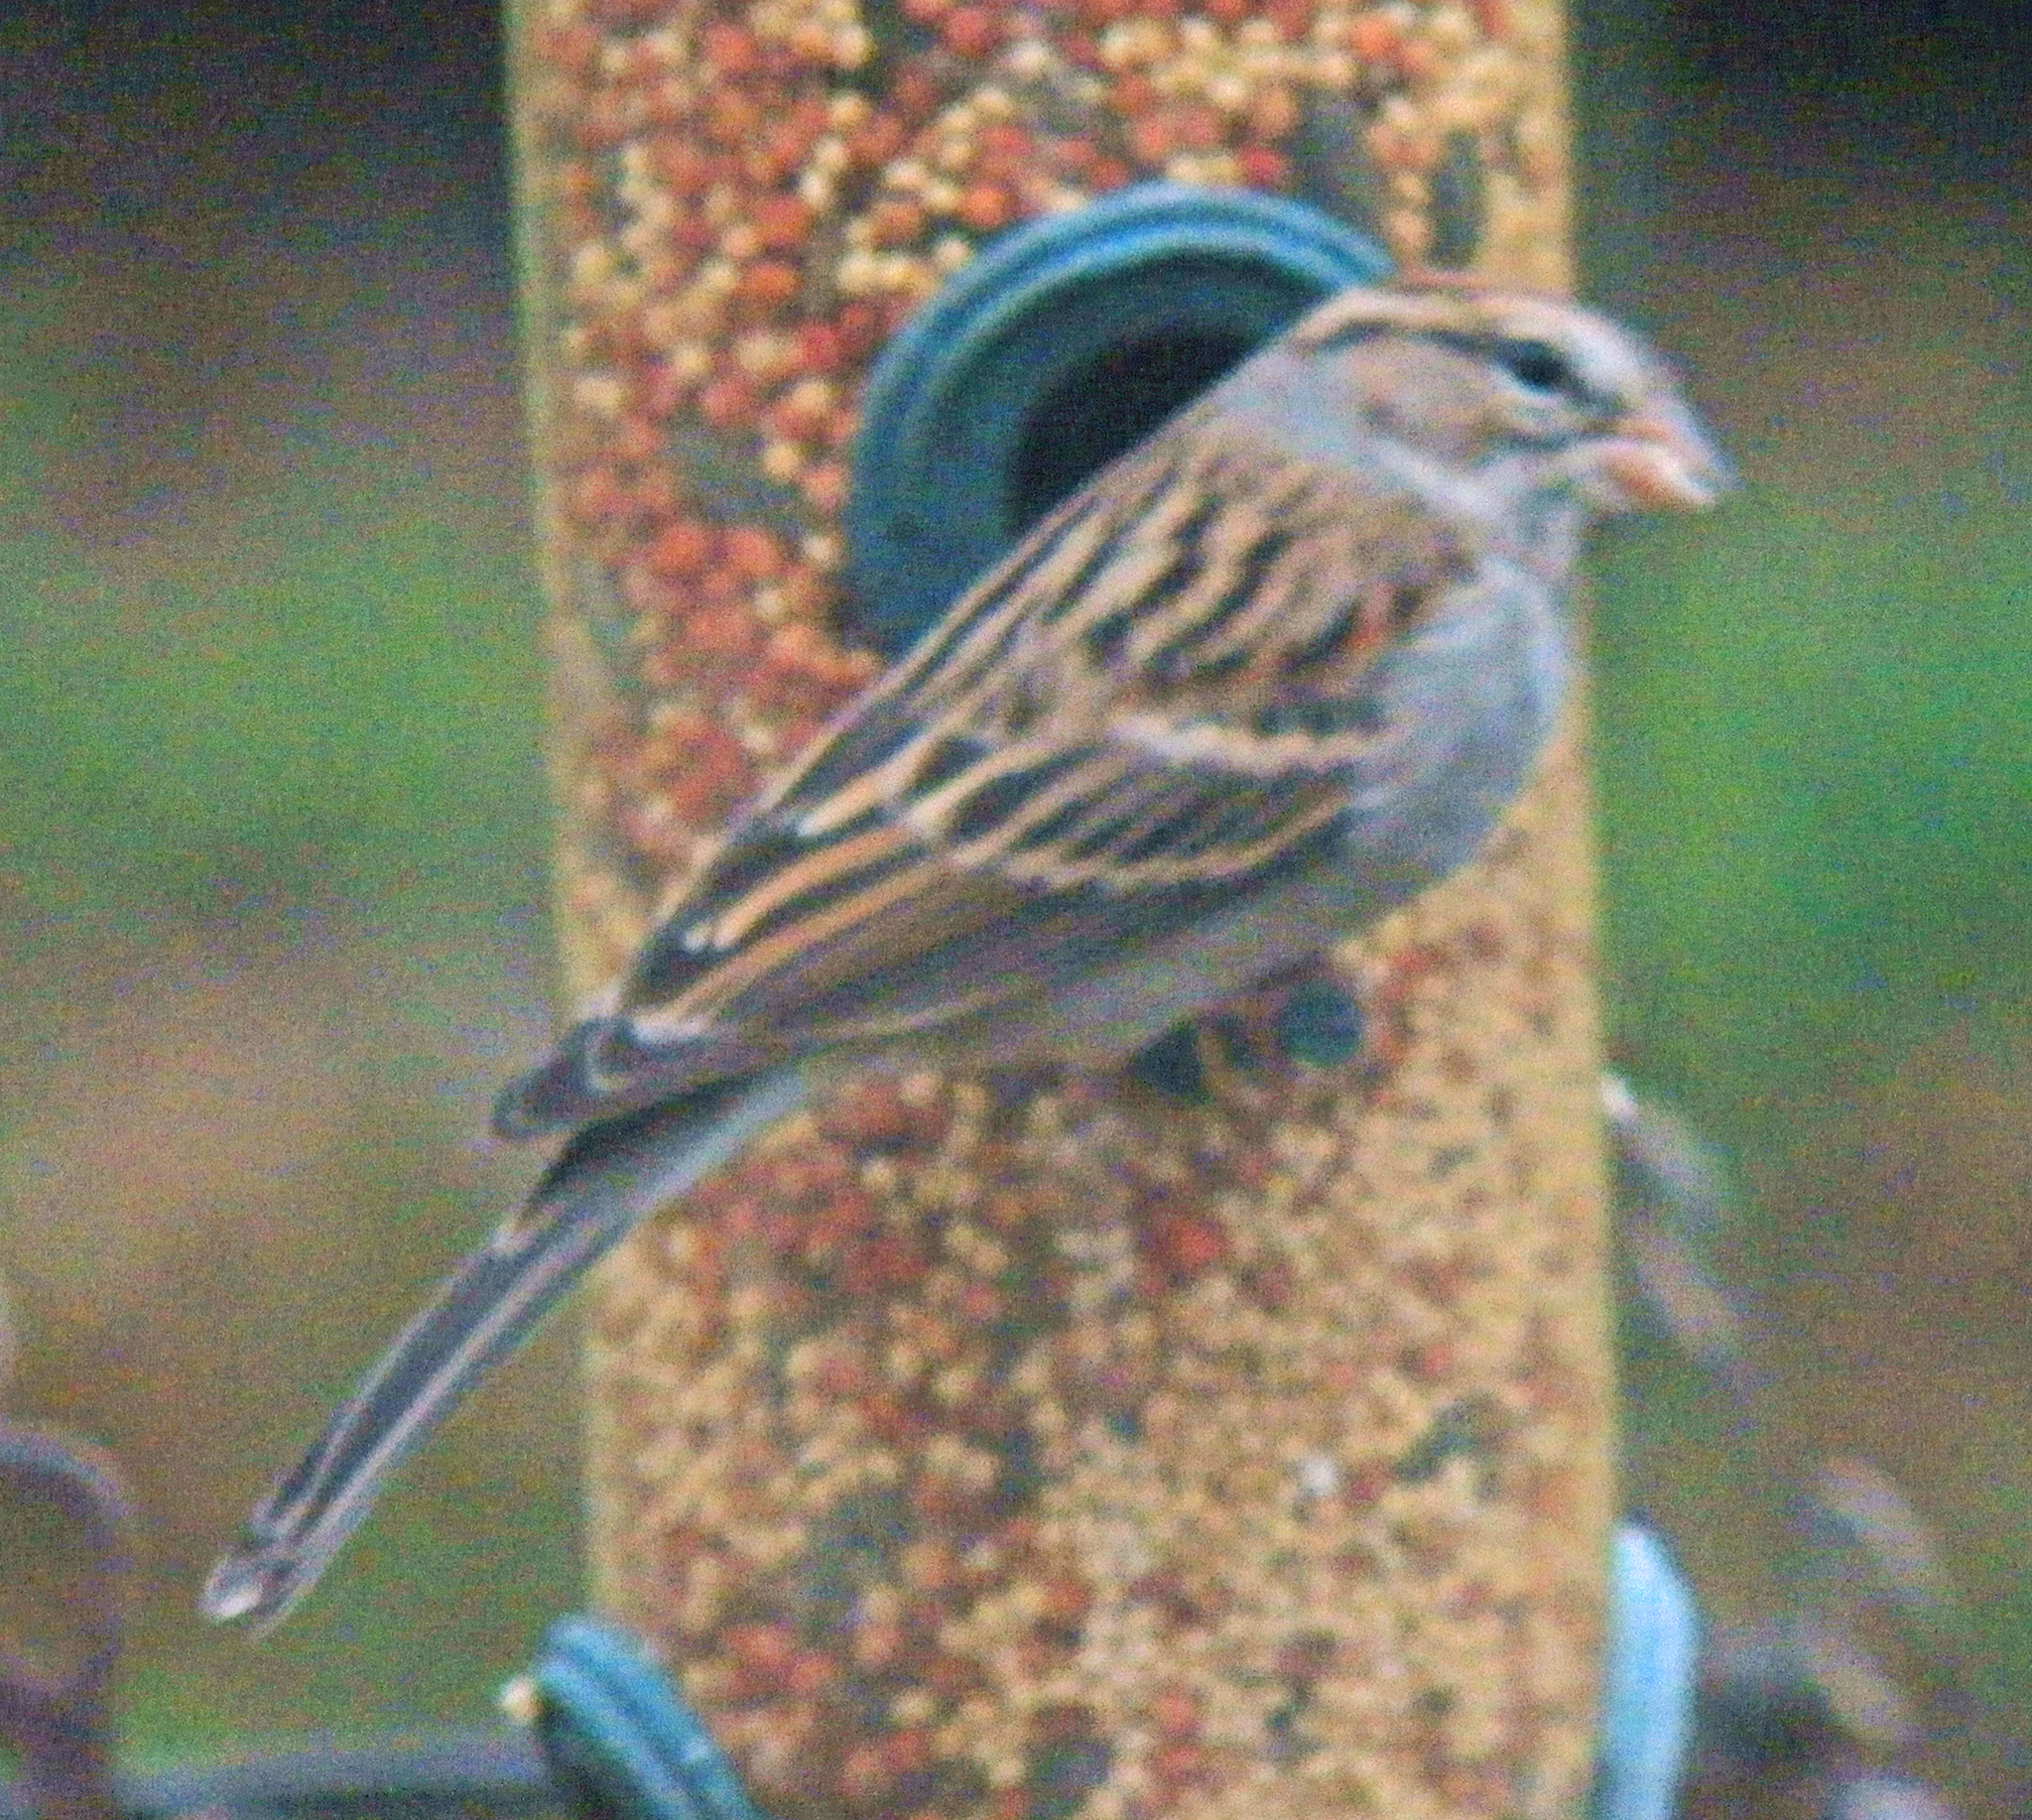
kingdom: Animalia
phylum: Chordata
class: Aves
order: Passeriformes
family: Passerellidae
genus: Spizella
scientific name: Spizella passerina
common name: Chipping sparrow
